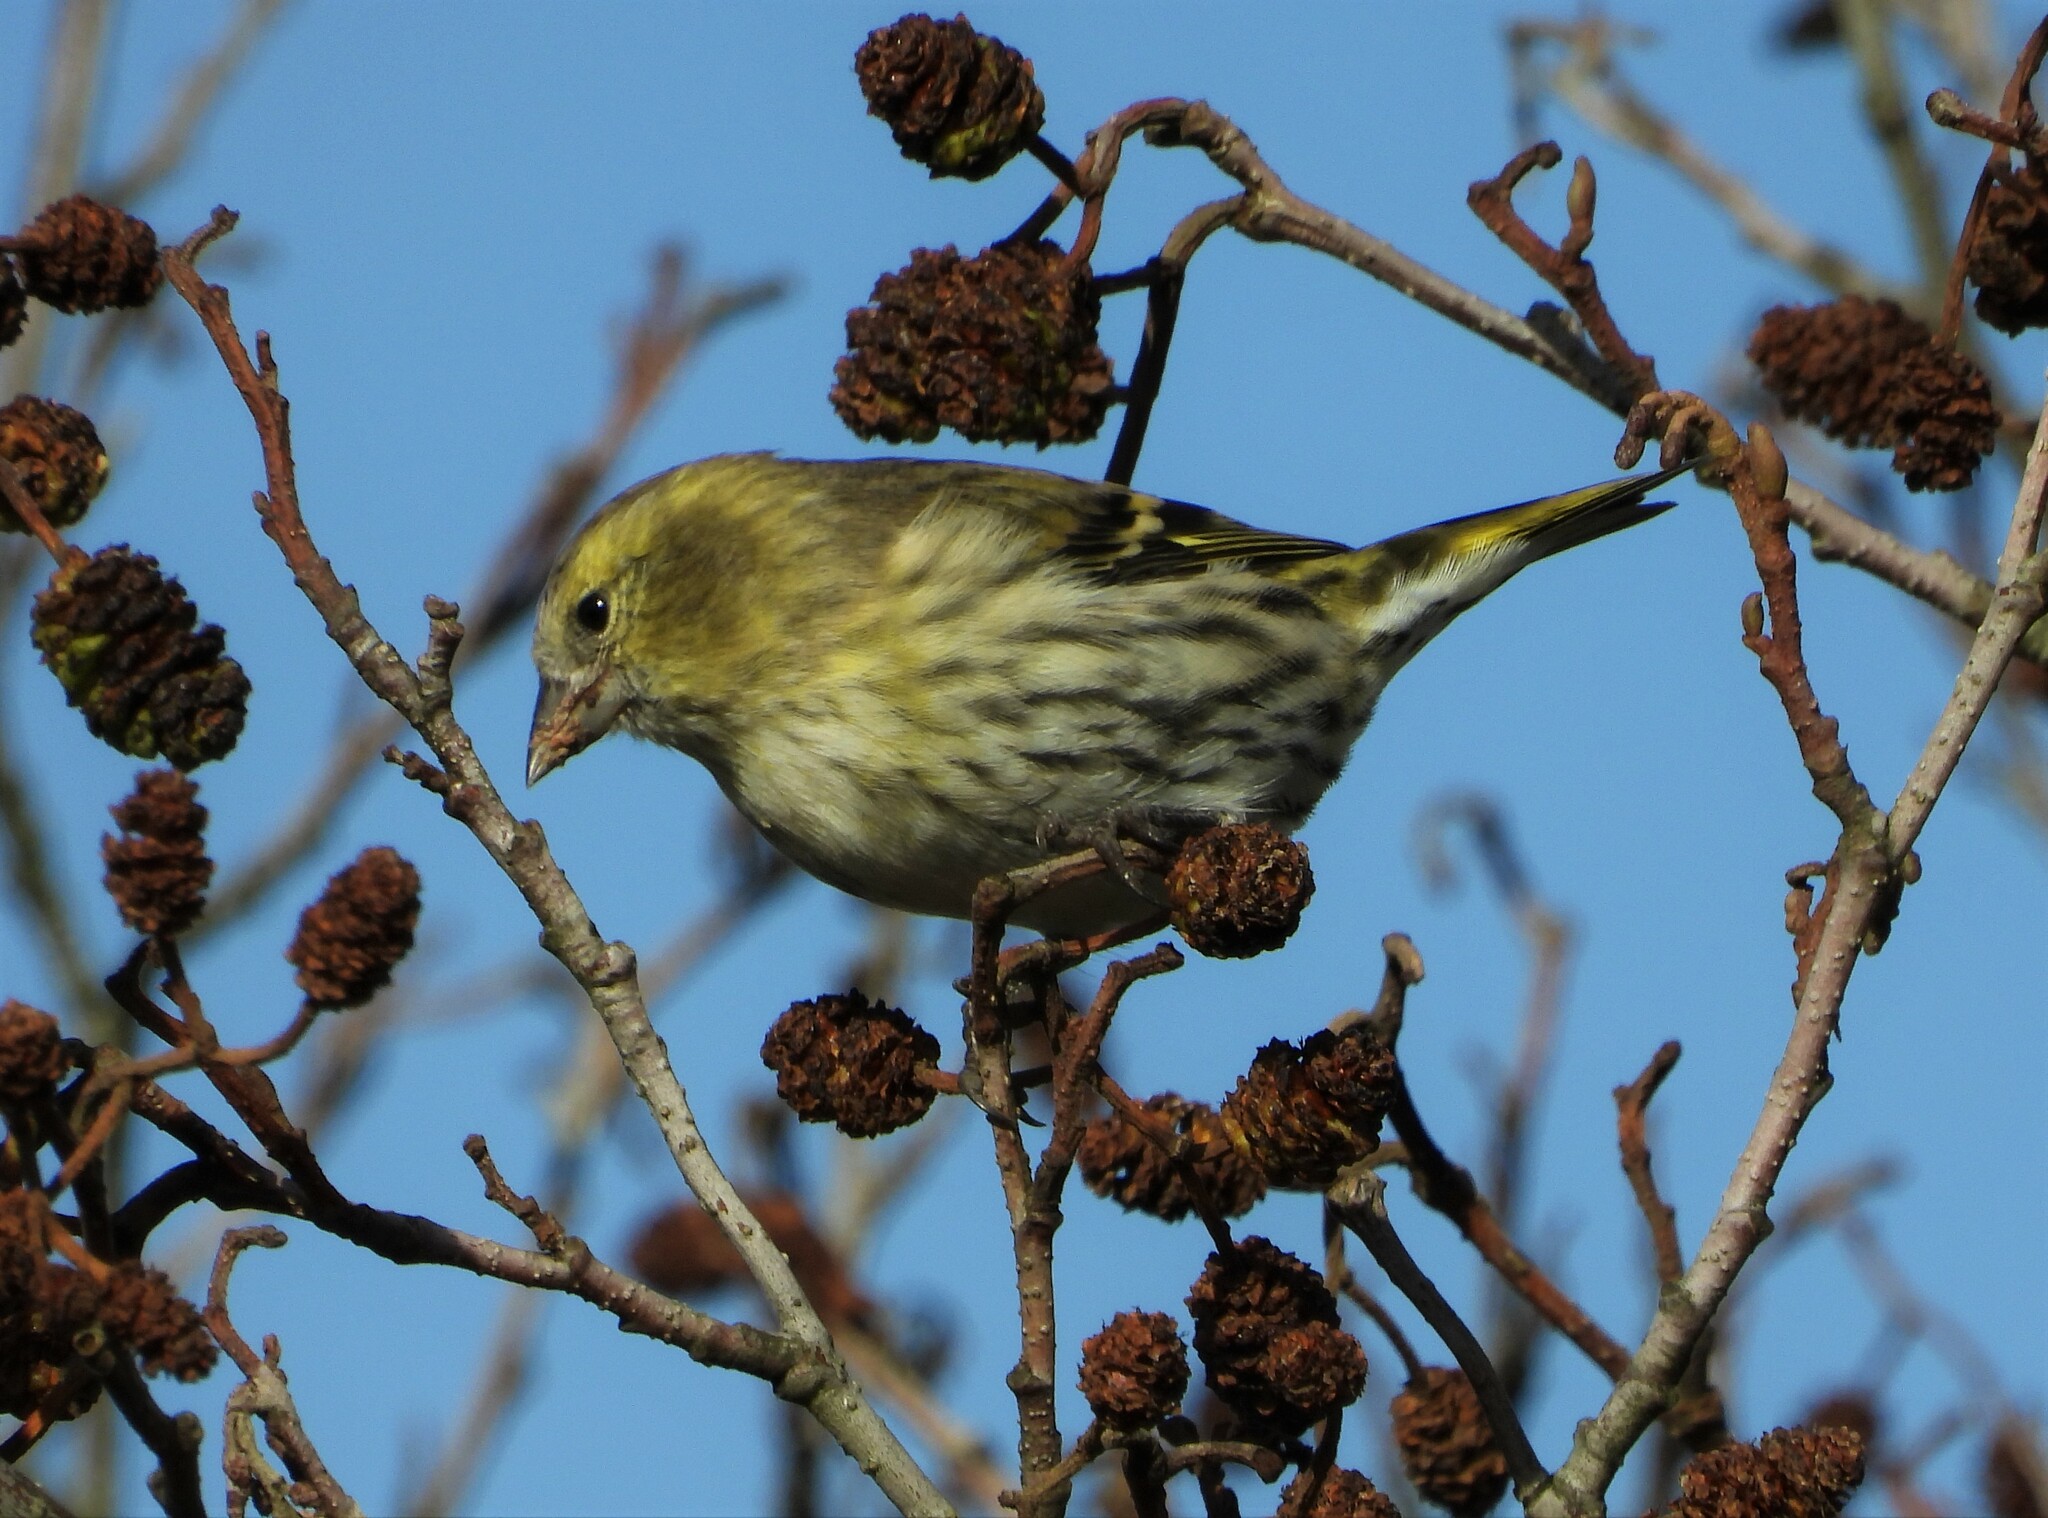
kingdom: Animalia
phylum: Chordata
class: Aves
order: Passeriformes
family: Fringillidae
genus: Spinus
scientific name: Spinus spinus
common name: Eurasian siskin
